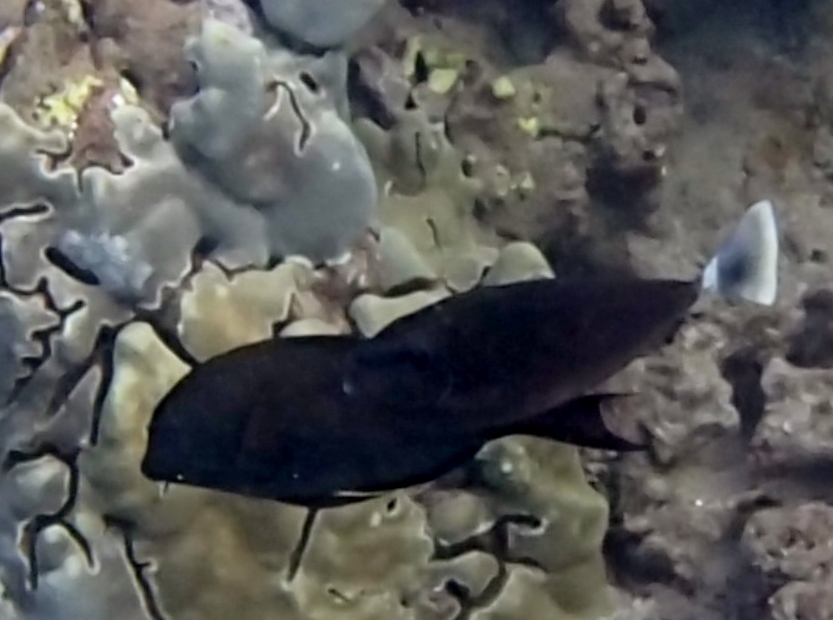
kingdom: Animalia
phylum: Chordata
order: Perciformes
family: Acanthuridae
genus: Naso
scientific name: Naso brevirostris
